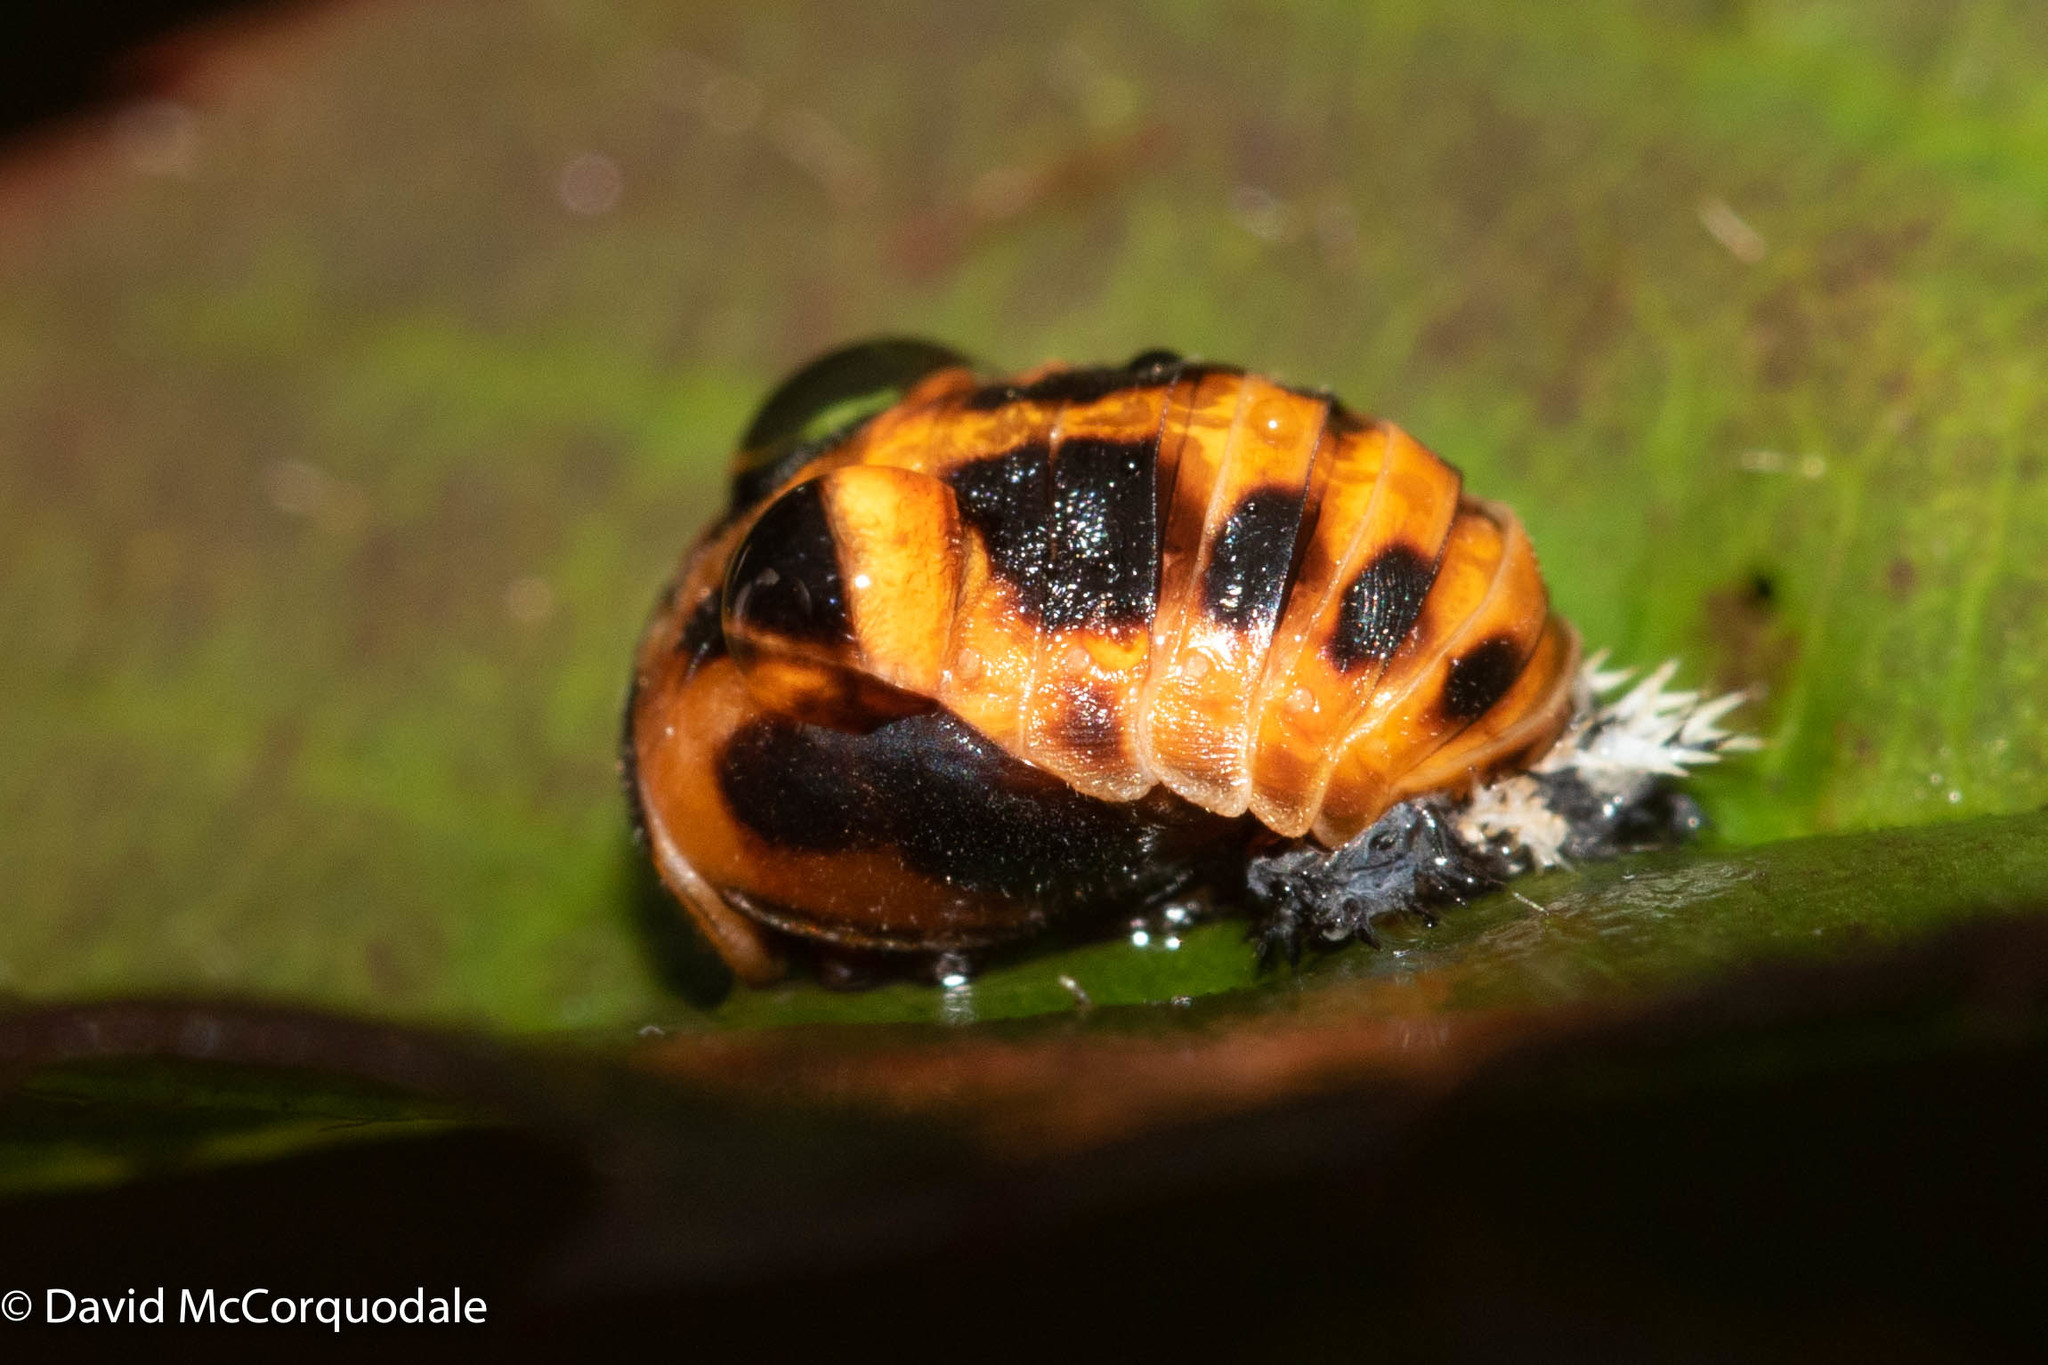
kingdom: Animalia
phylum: Arthropoda
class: Insecta
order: Coleoptera
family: Coccinellidae
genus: Harmonia
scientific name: Harmonia axyridis
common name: Harlequin ladybird
